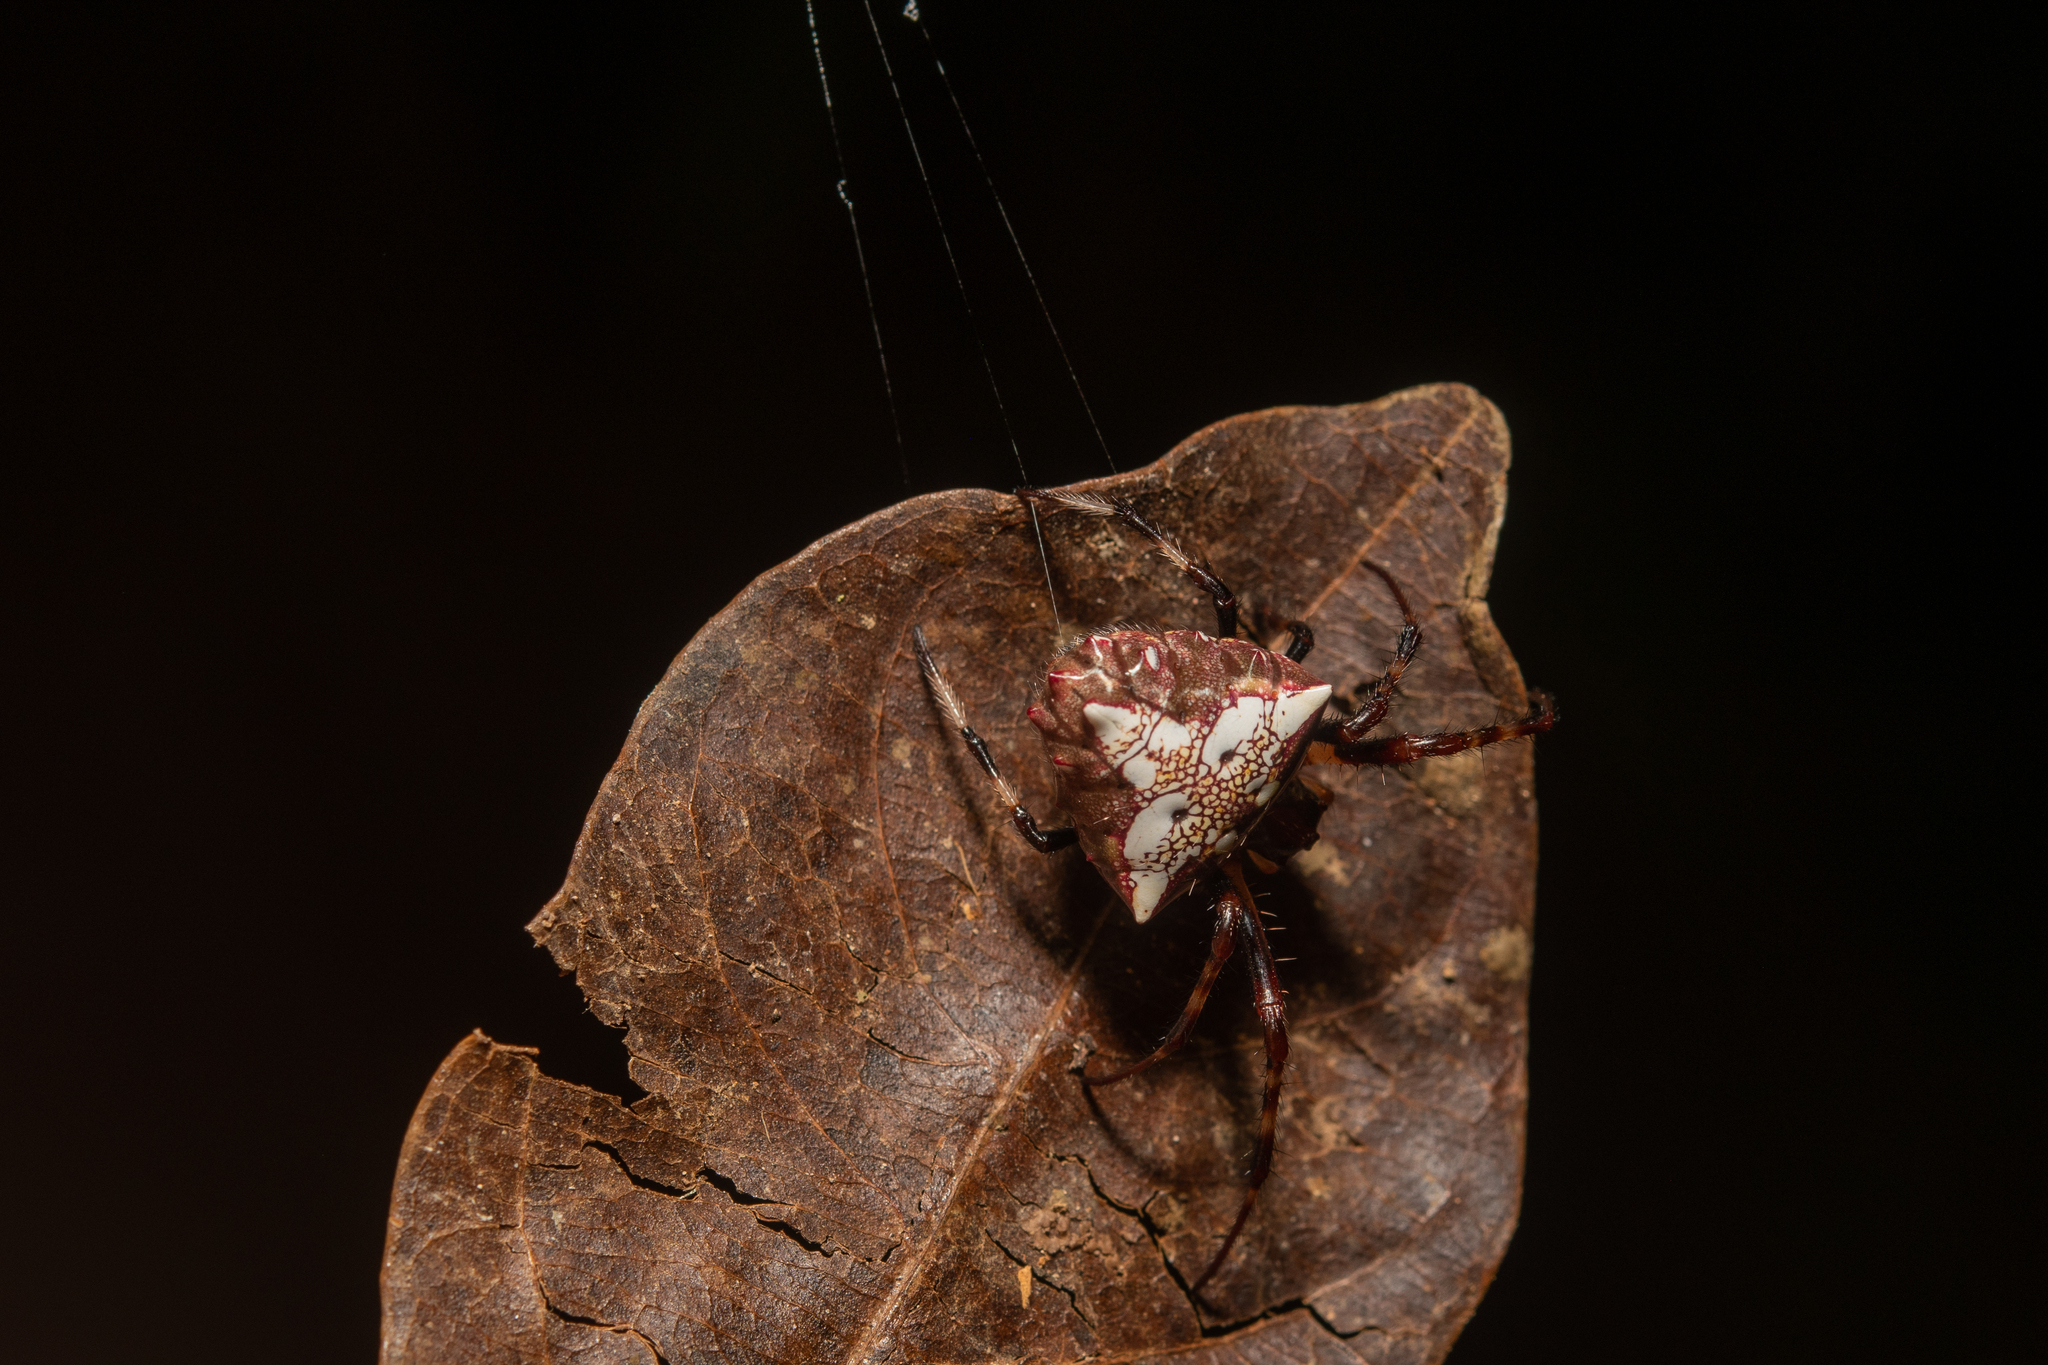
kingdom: Animalia
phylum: Arthropoda
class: Arachnida
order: Araneae
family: Araneidae
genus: Verrucosa
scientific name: Verrucosa arenata
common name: Orb weavers
